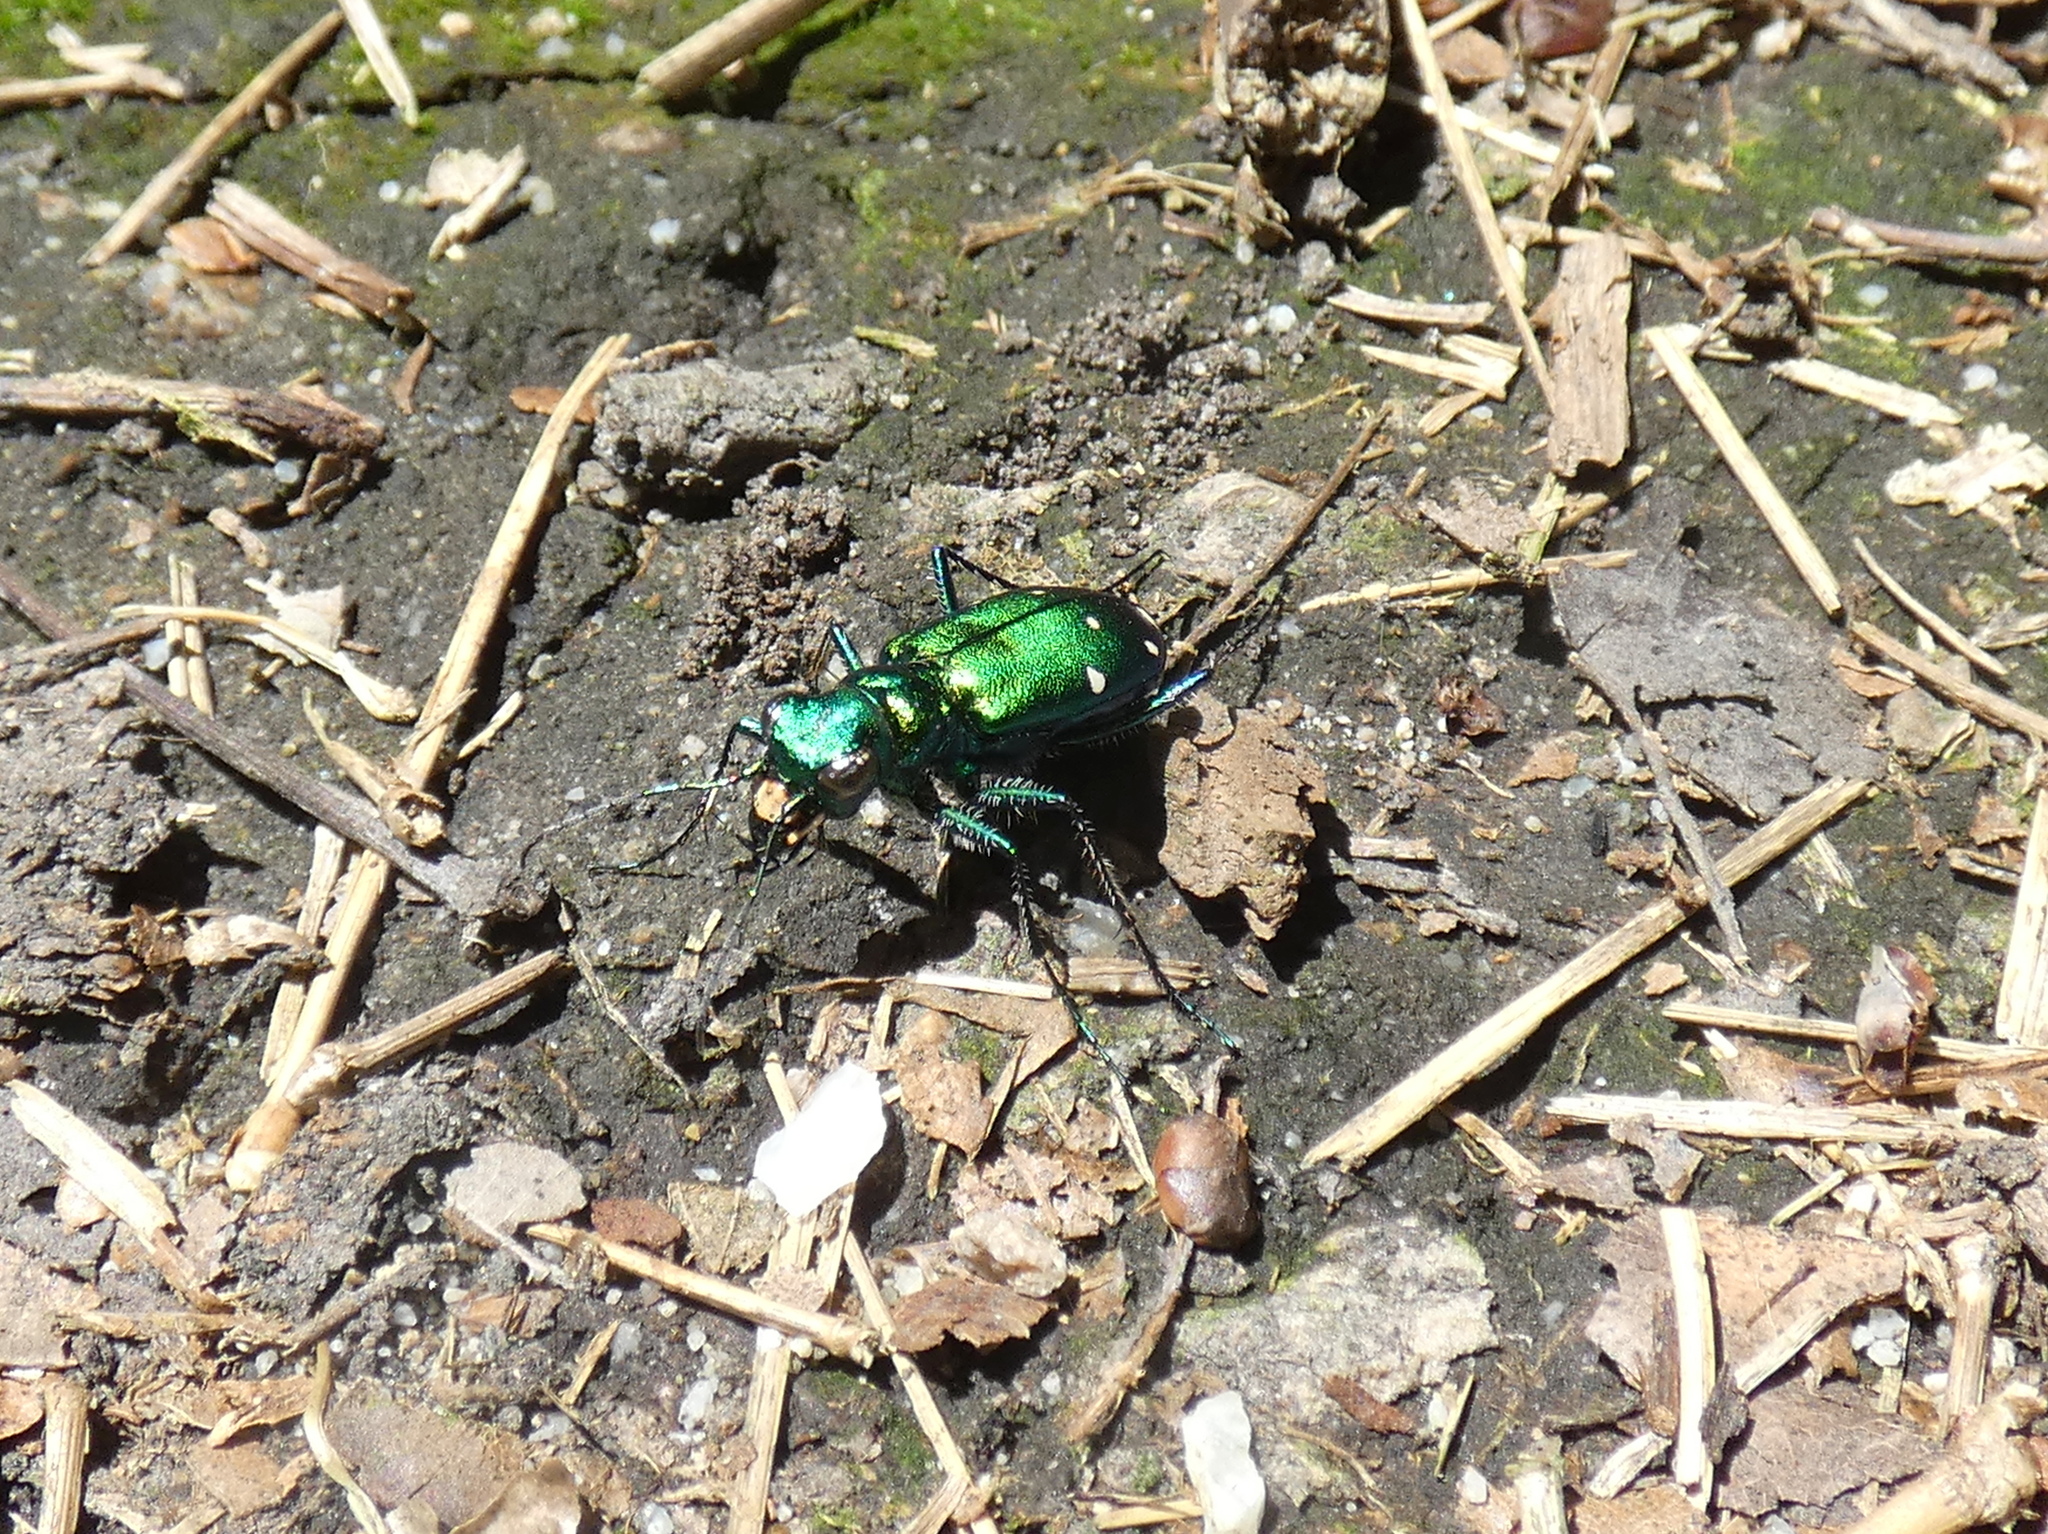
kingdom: Animalia
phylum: Arthropoda
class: Insecta
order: Coleoptera
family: Carabidae
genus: Cicindela
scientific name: Cicindela sexguttata
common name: Six-spotted tiger beetle
